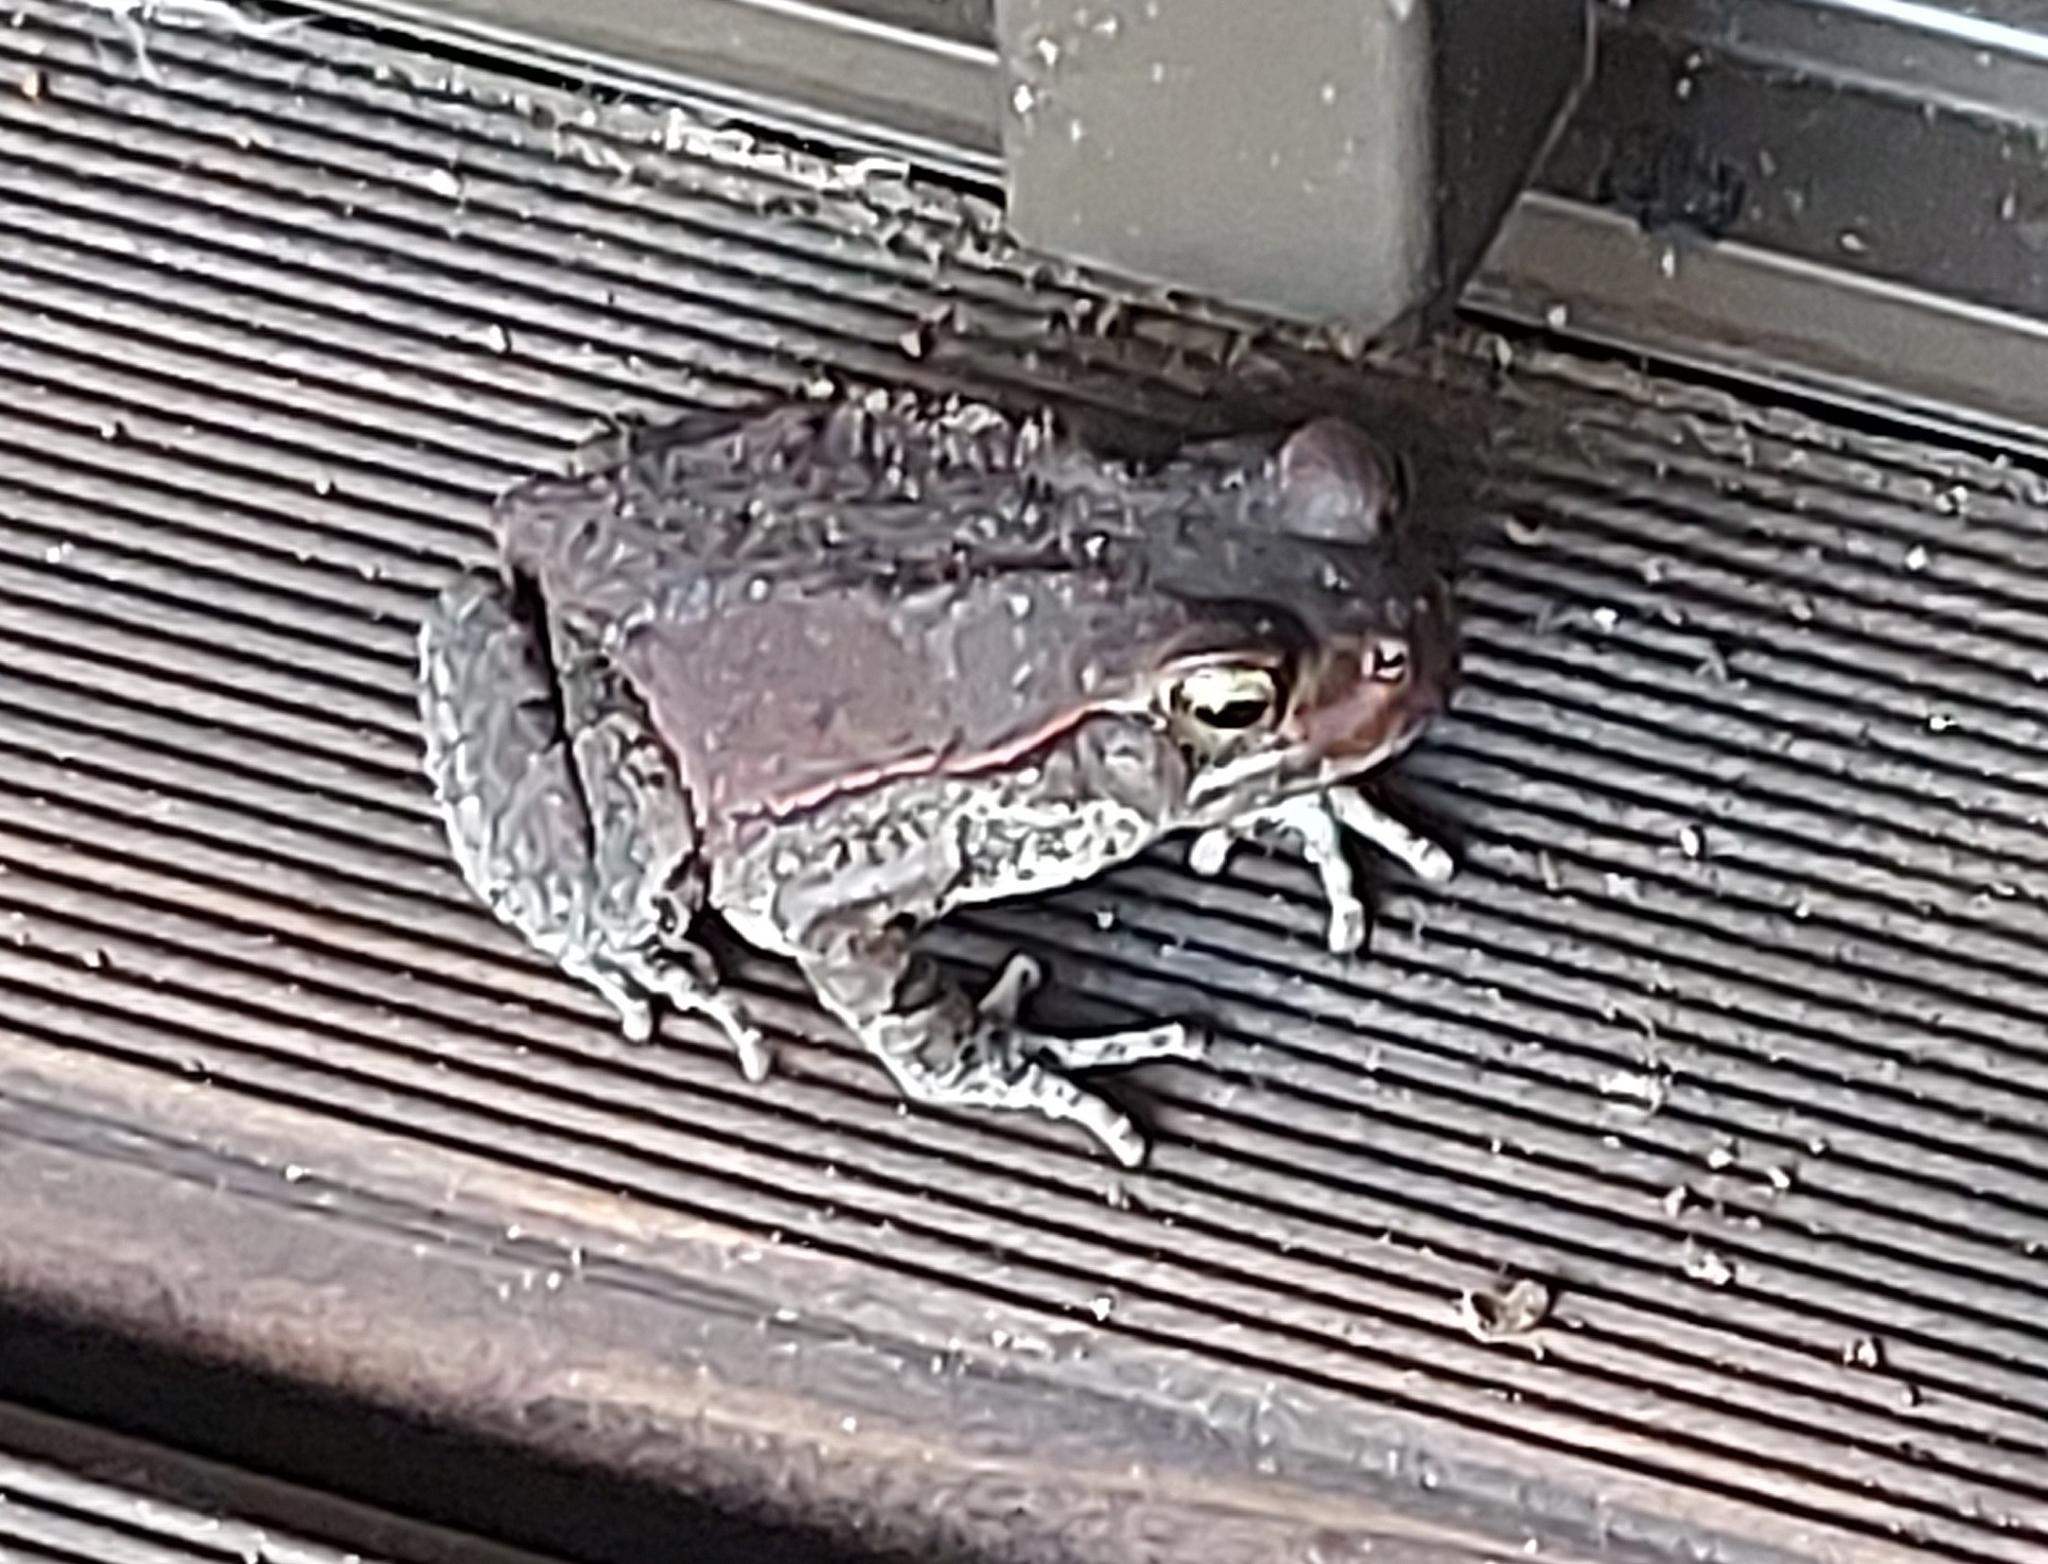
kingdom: Animalia
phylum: Chordata
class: Amphibia
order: Anura
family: Bufonidae
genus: Schismaderma
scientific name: Schismaderma carens
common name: African split-skin toad
